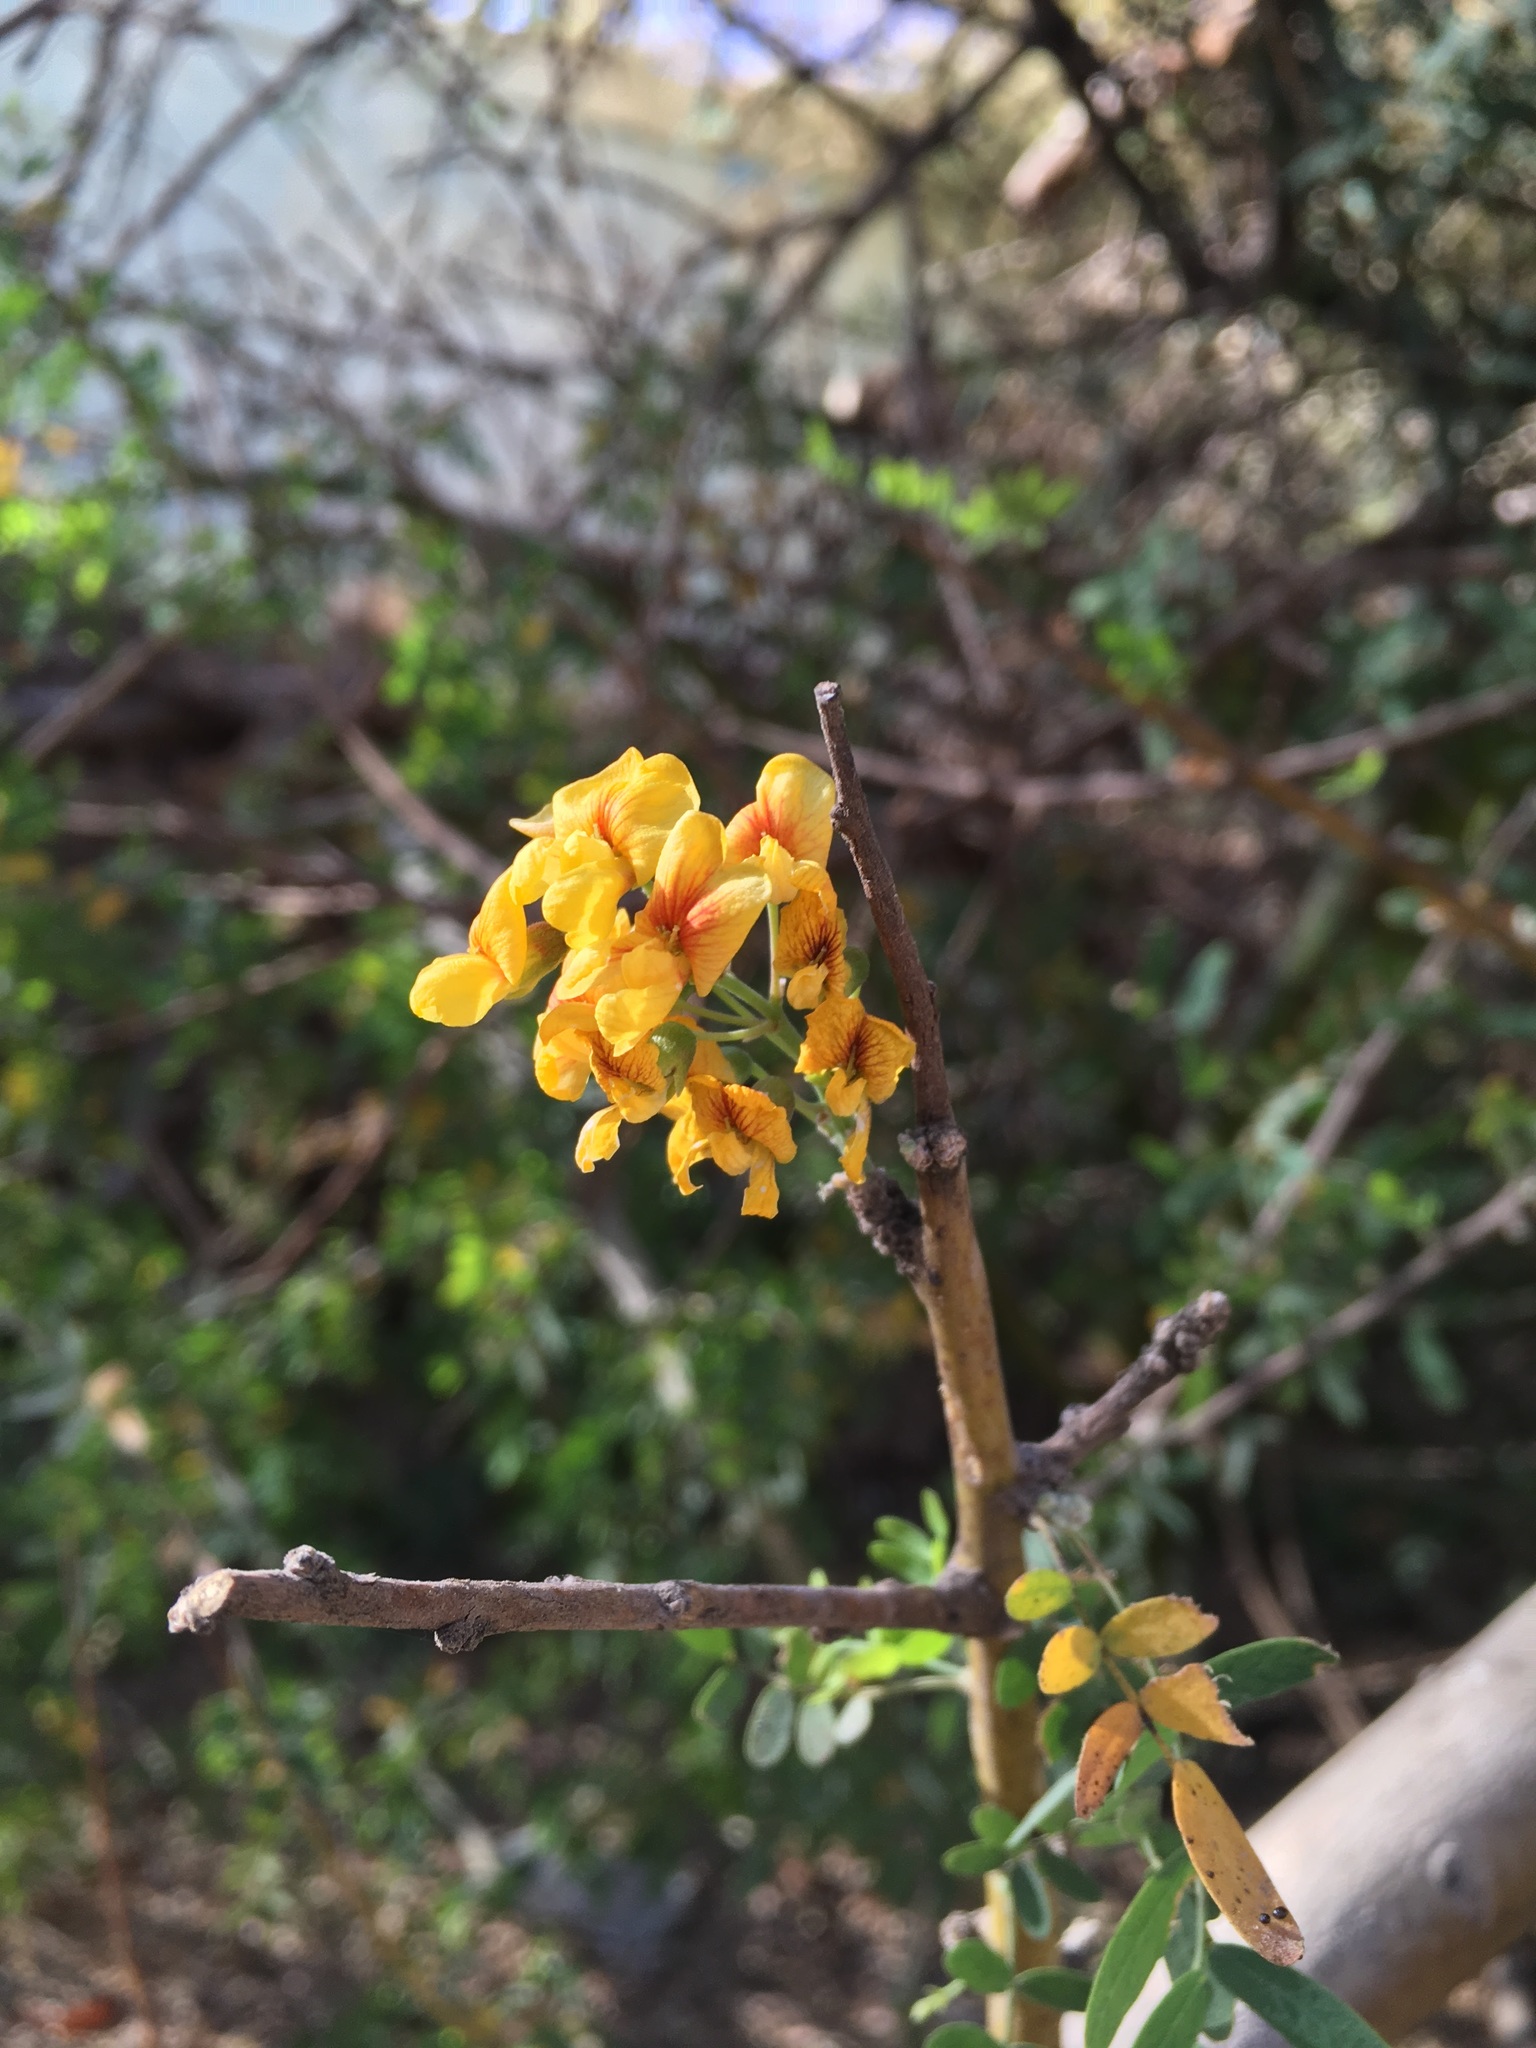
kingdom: Plantae
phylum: Tracheophyta
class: Magnoliopsida
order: Fabales
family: Fabaceae
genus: Geoffroea
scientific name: Geoffroea decorticans
